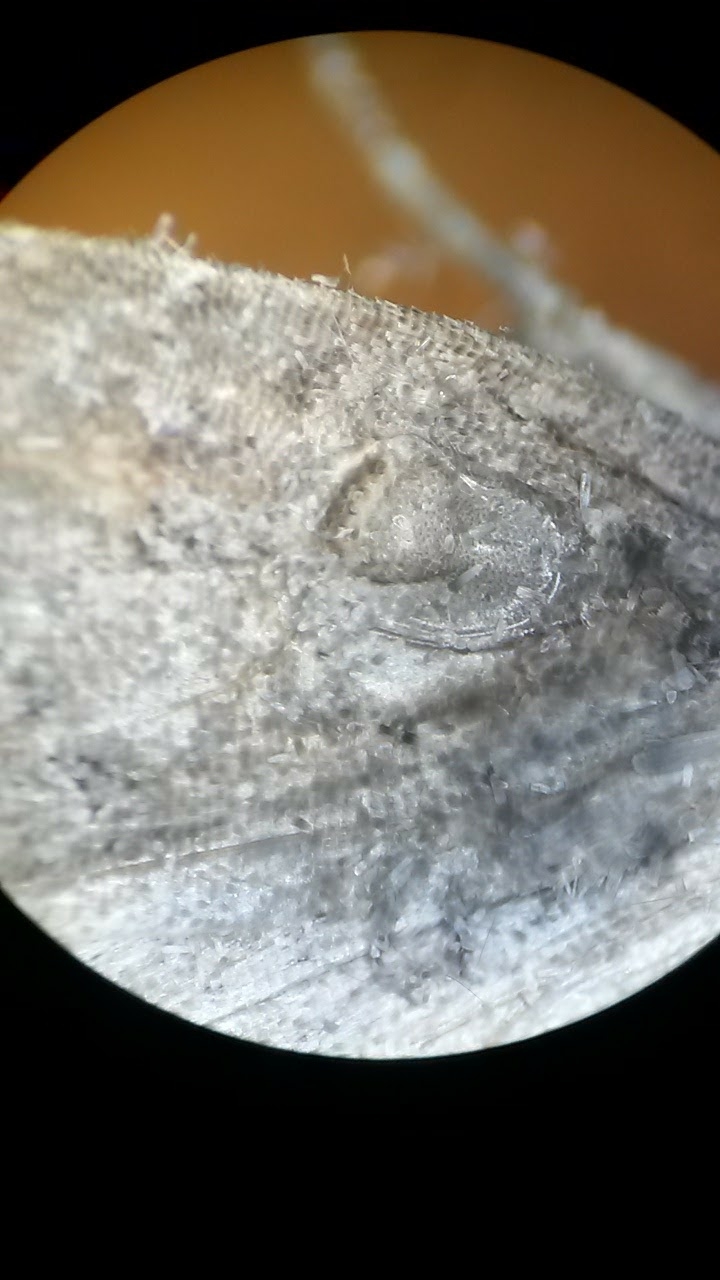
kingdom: Animalia
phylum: Arthropoda
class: Insecta
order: Lepidoptera
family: Noctuidae
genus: Amyna
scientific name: Amyna natalis
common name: Iiima moth
